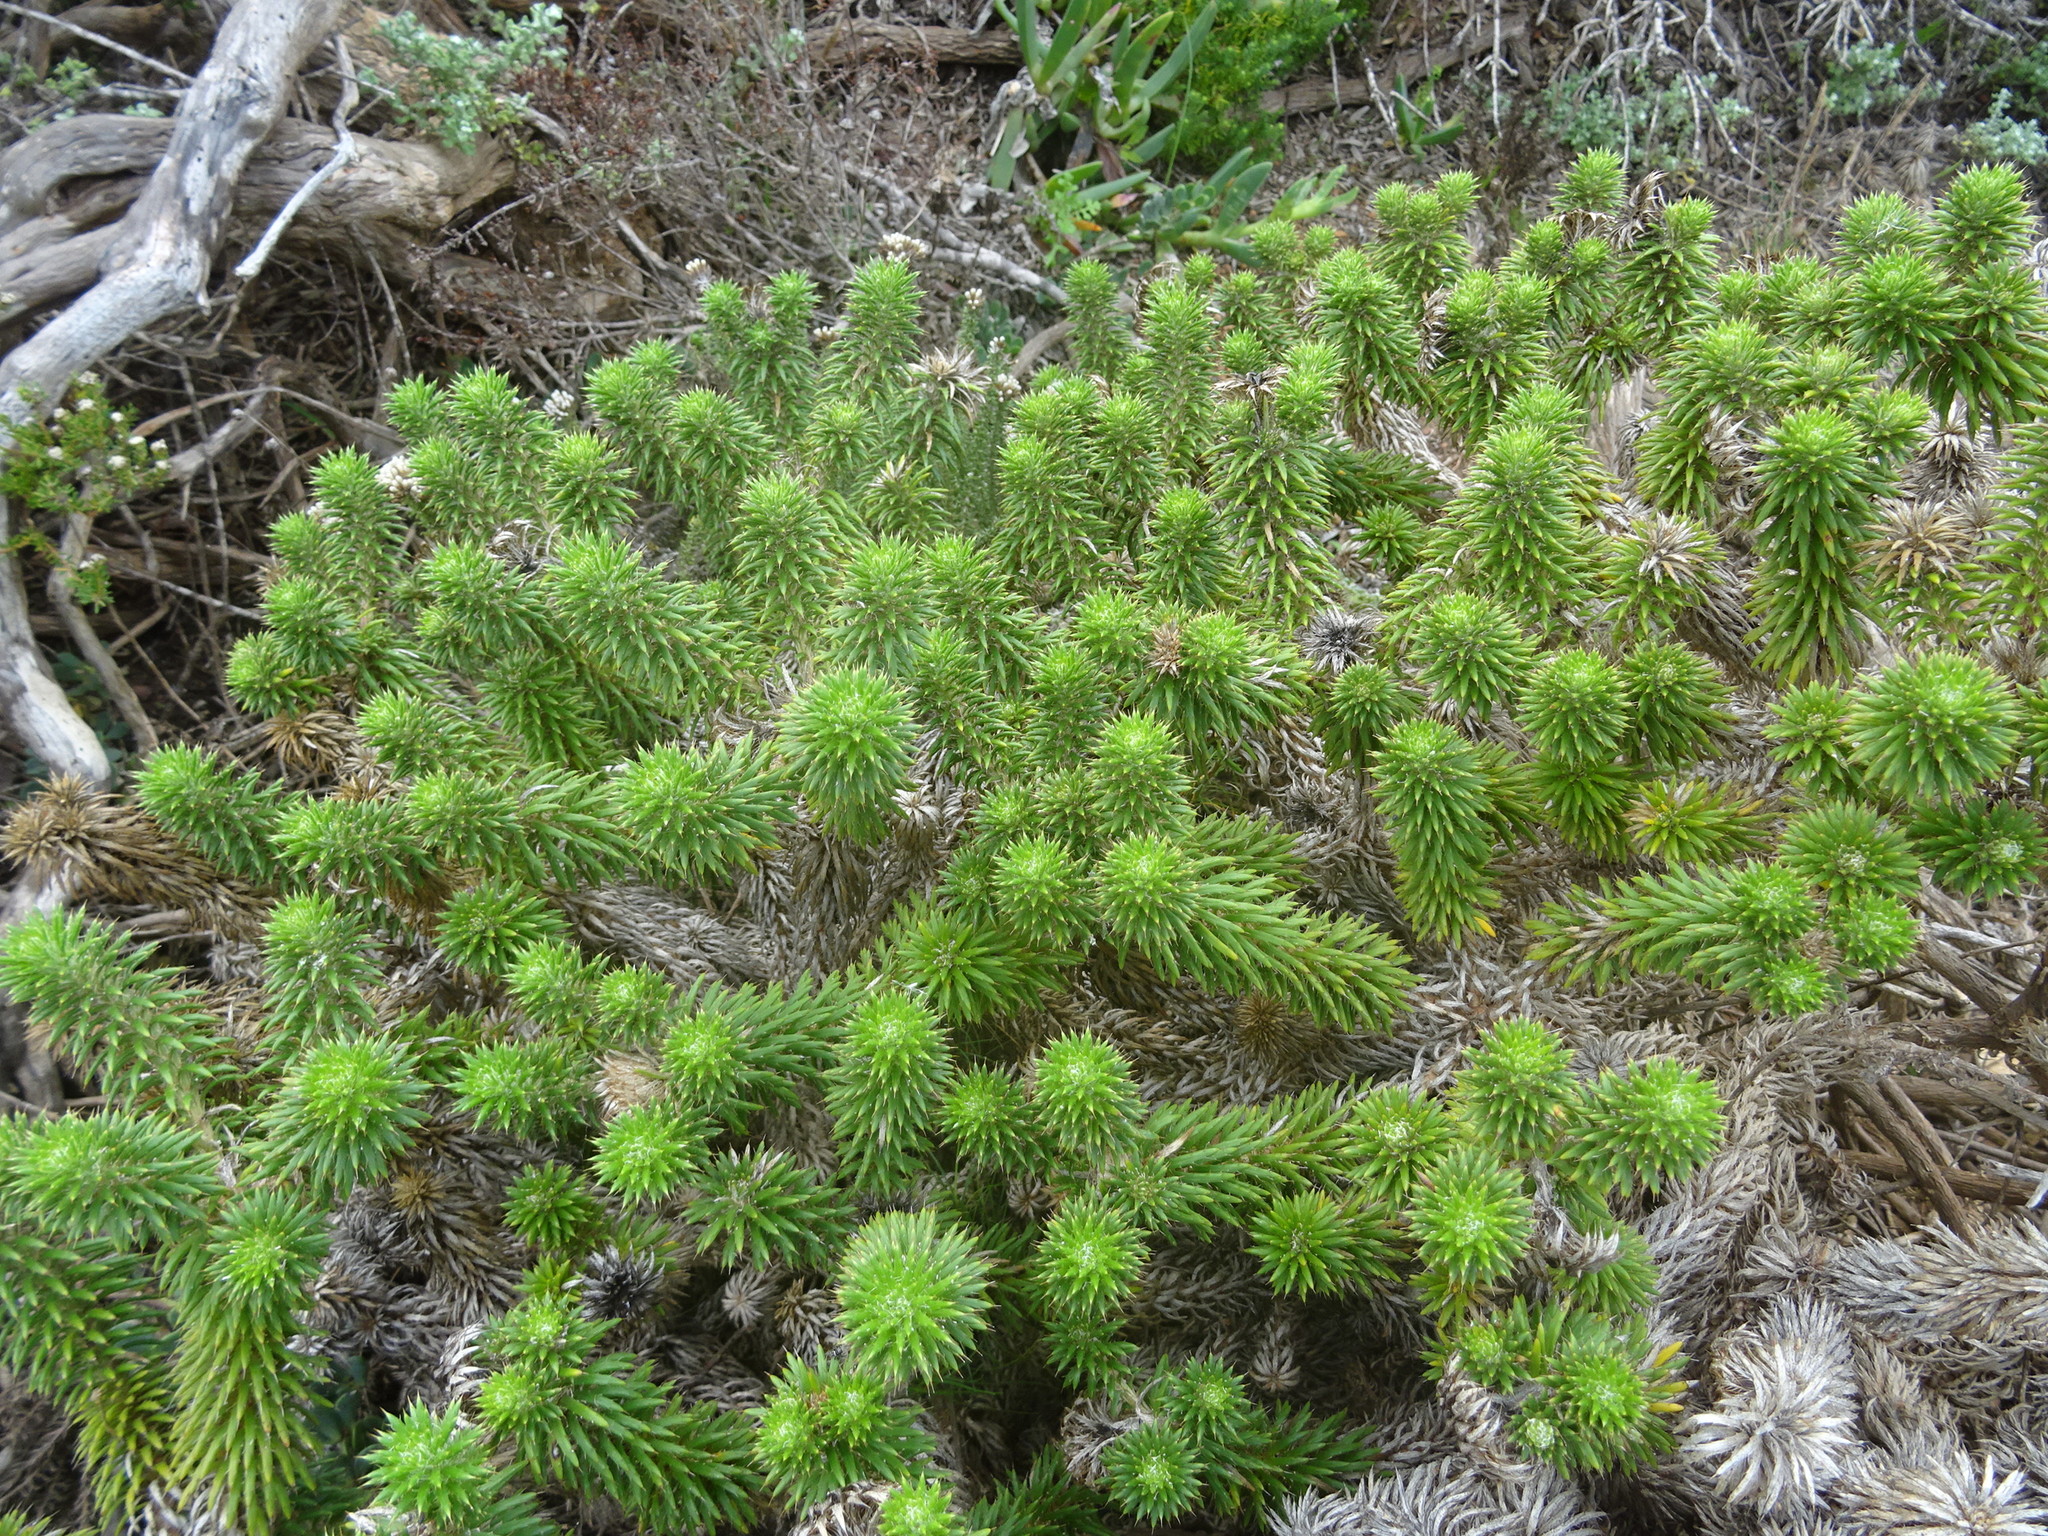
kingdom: Plantae
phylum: Tracheophyta
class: Magnoliopsida
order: Asterales
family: Asteraceae
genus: Cullumia
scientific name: Cullumia squarrosa
